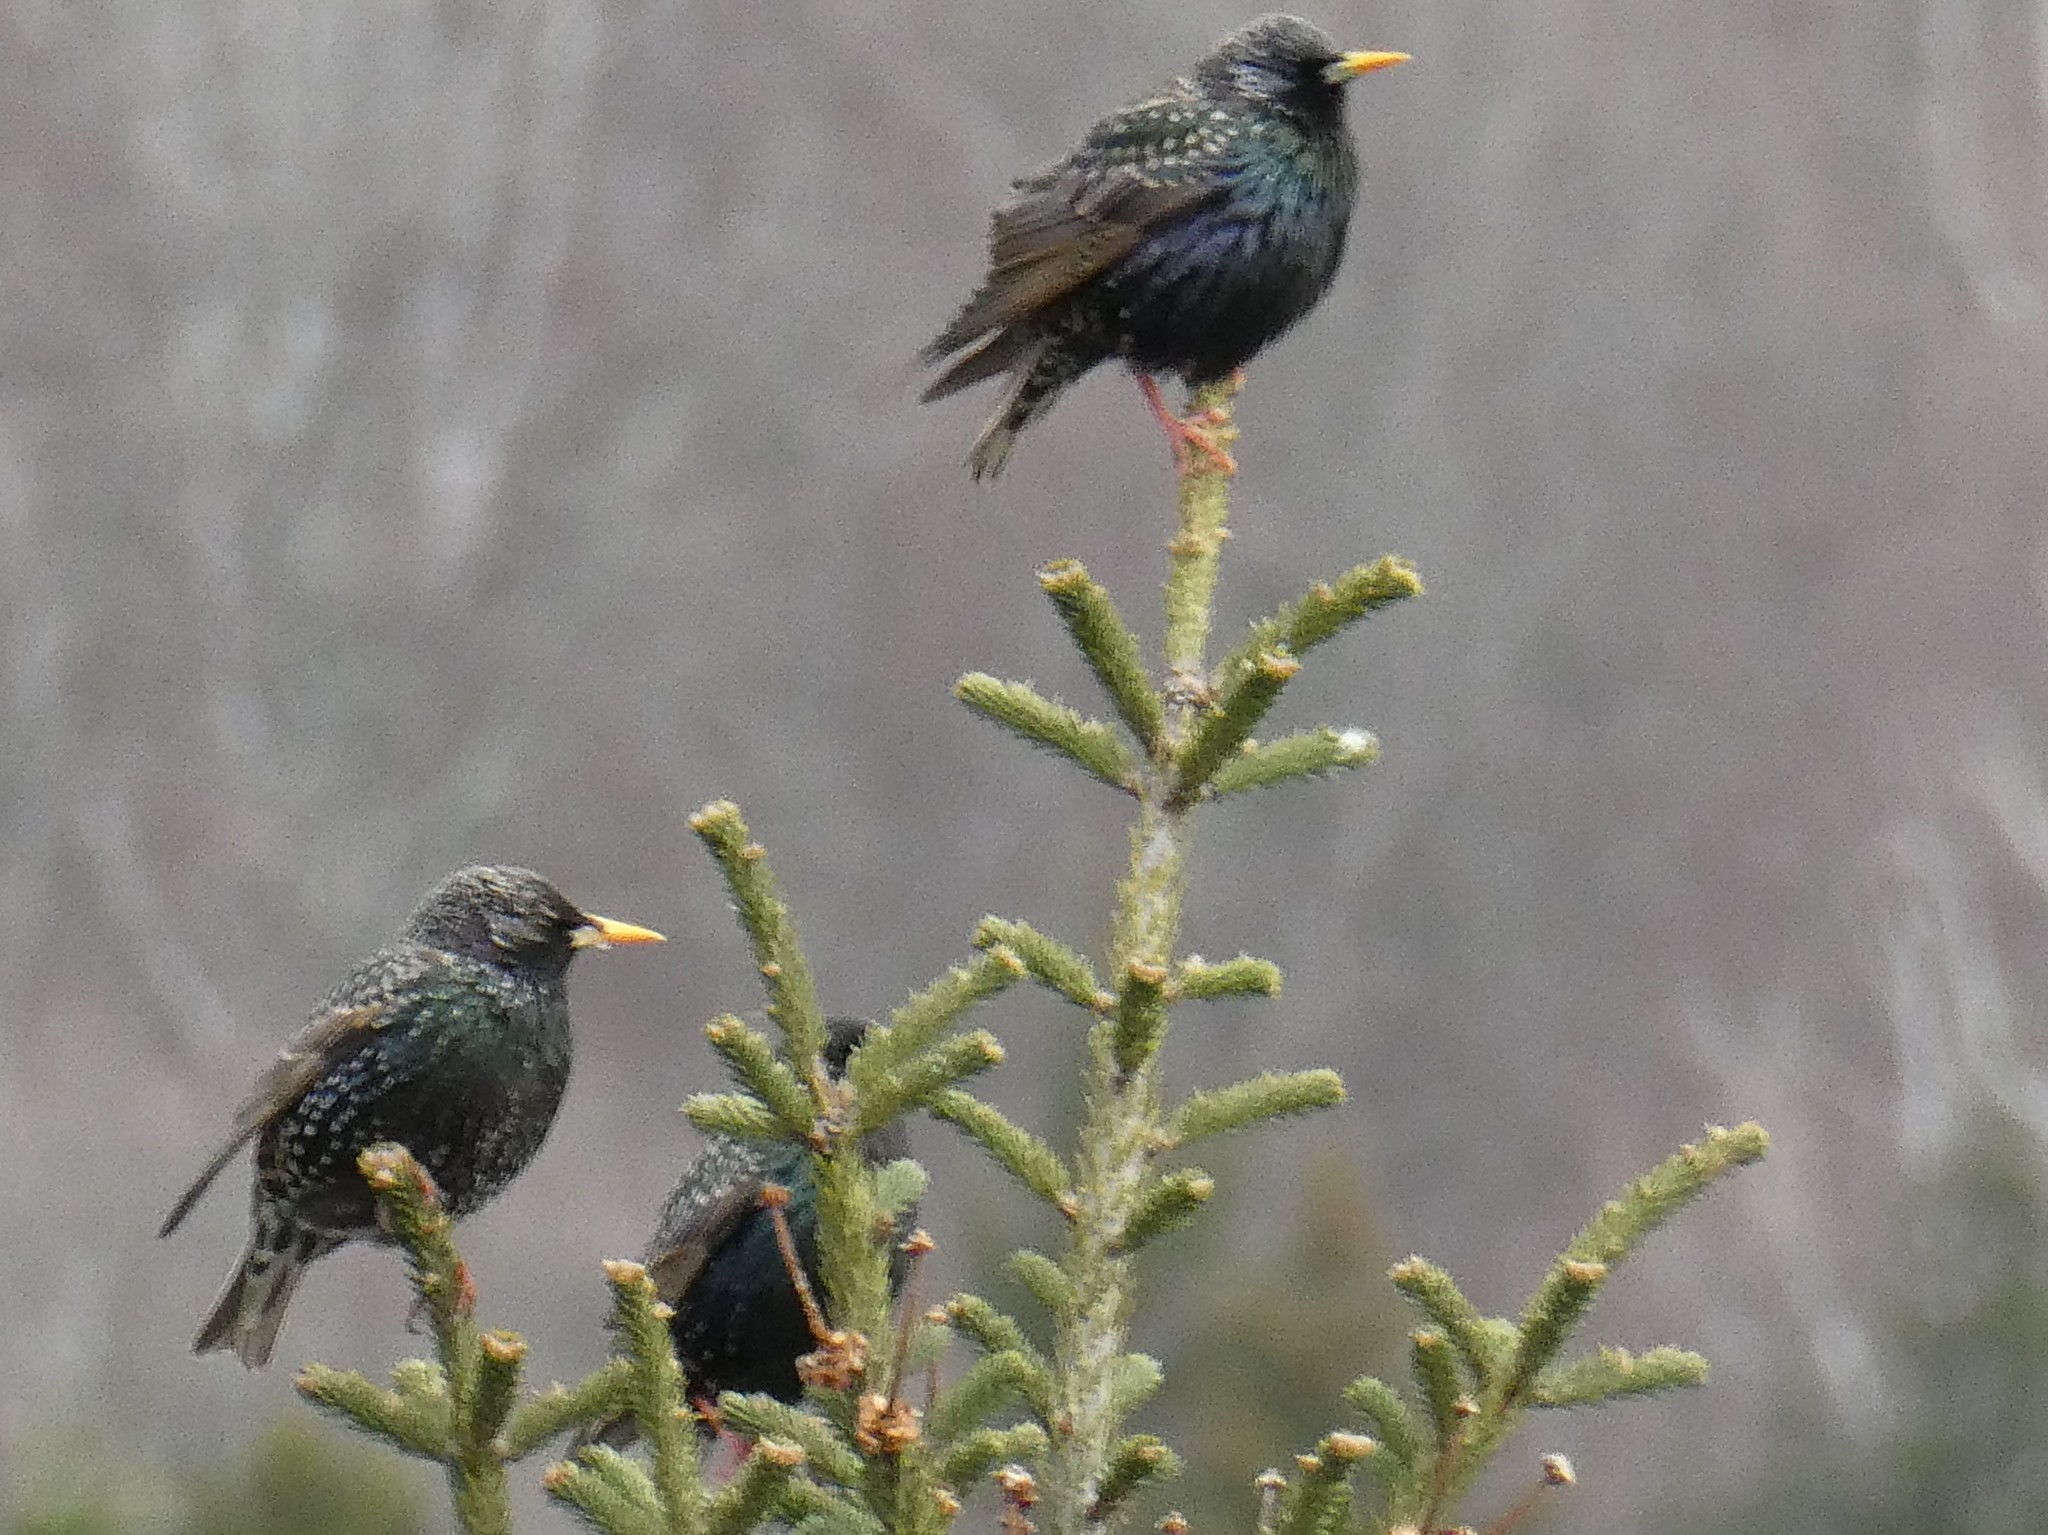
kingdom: Animalia
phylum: Chordata
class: Aves
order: Passeriformes
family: Sturnidae
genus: Sturnus
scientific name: Sturnus vulgaris
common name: Common starling
